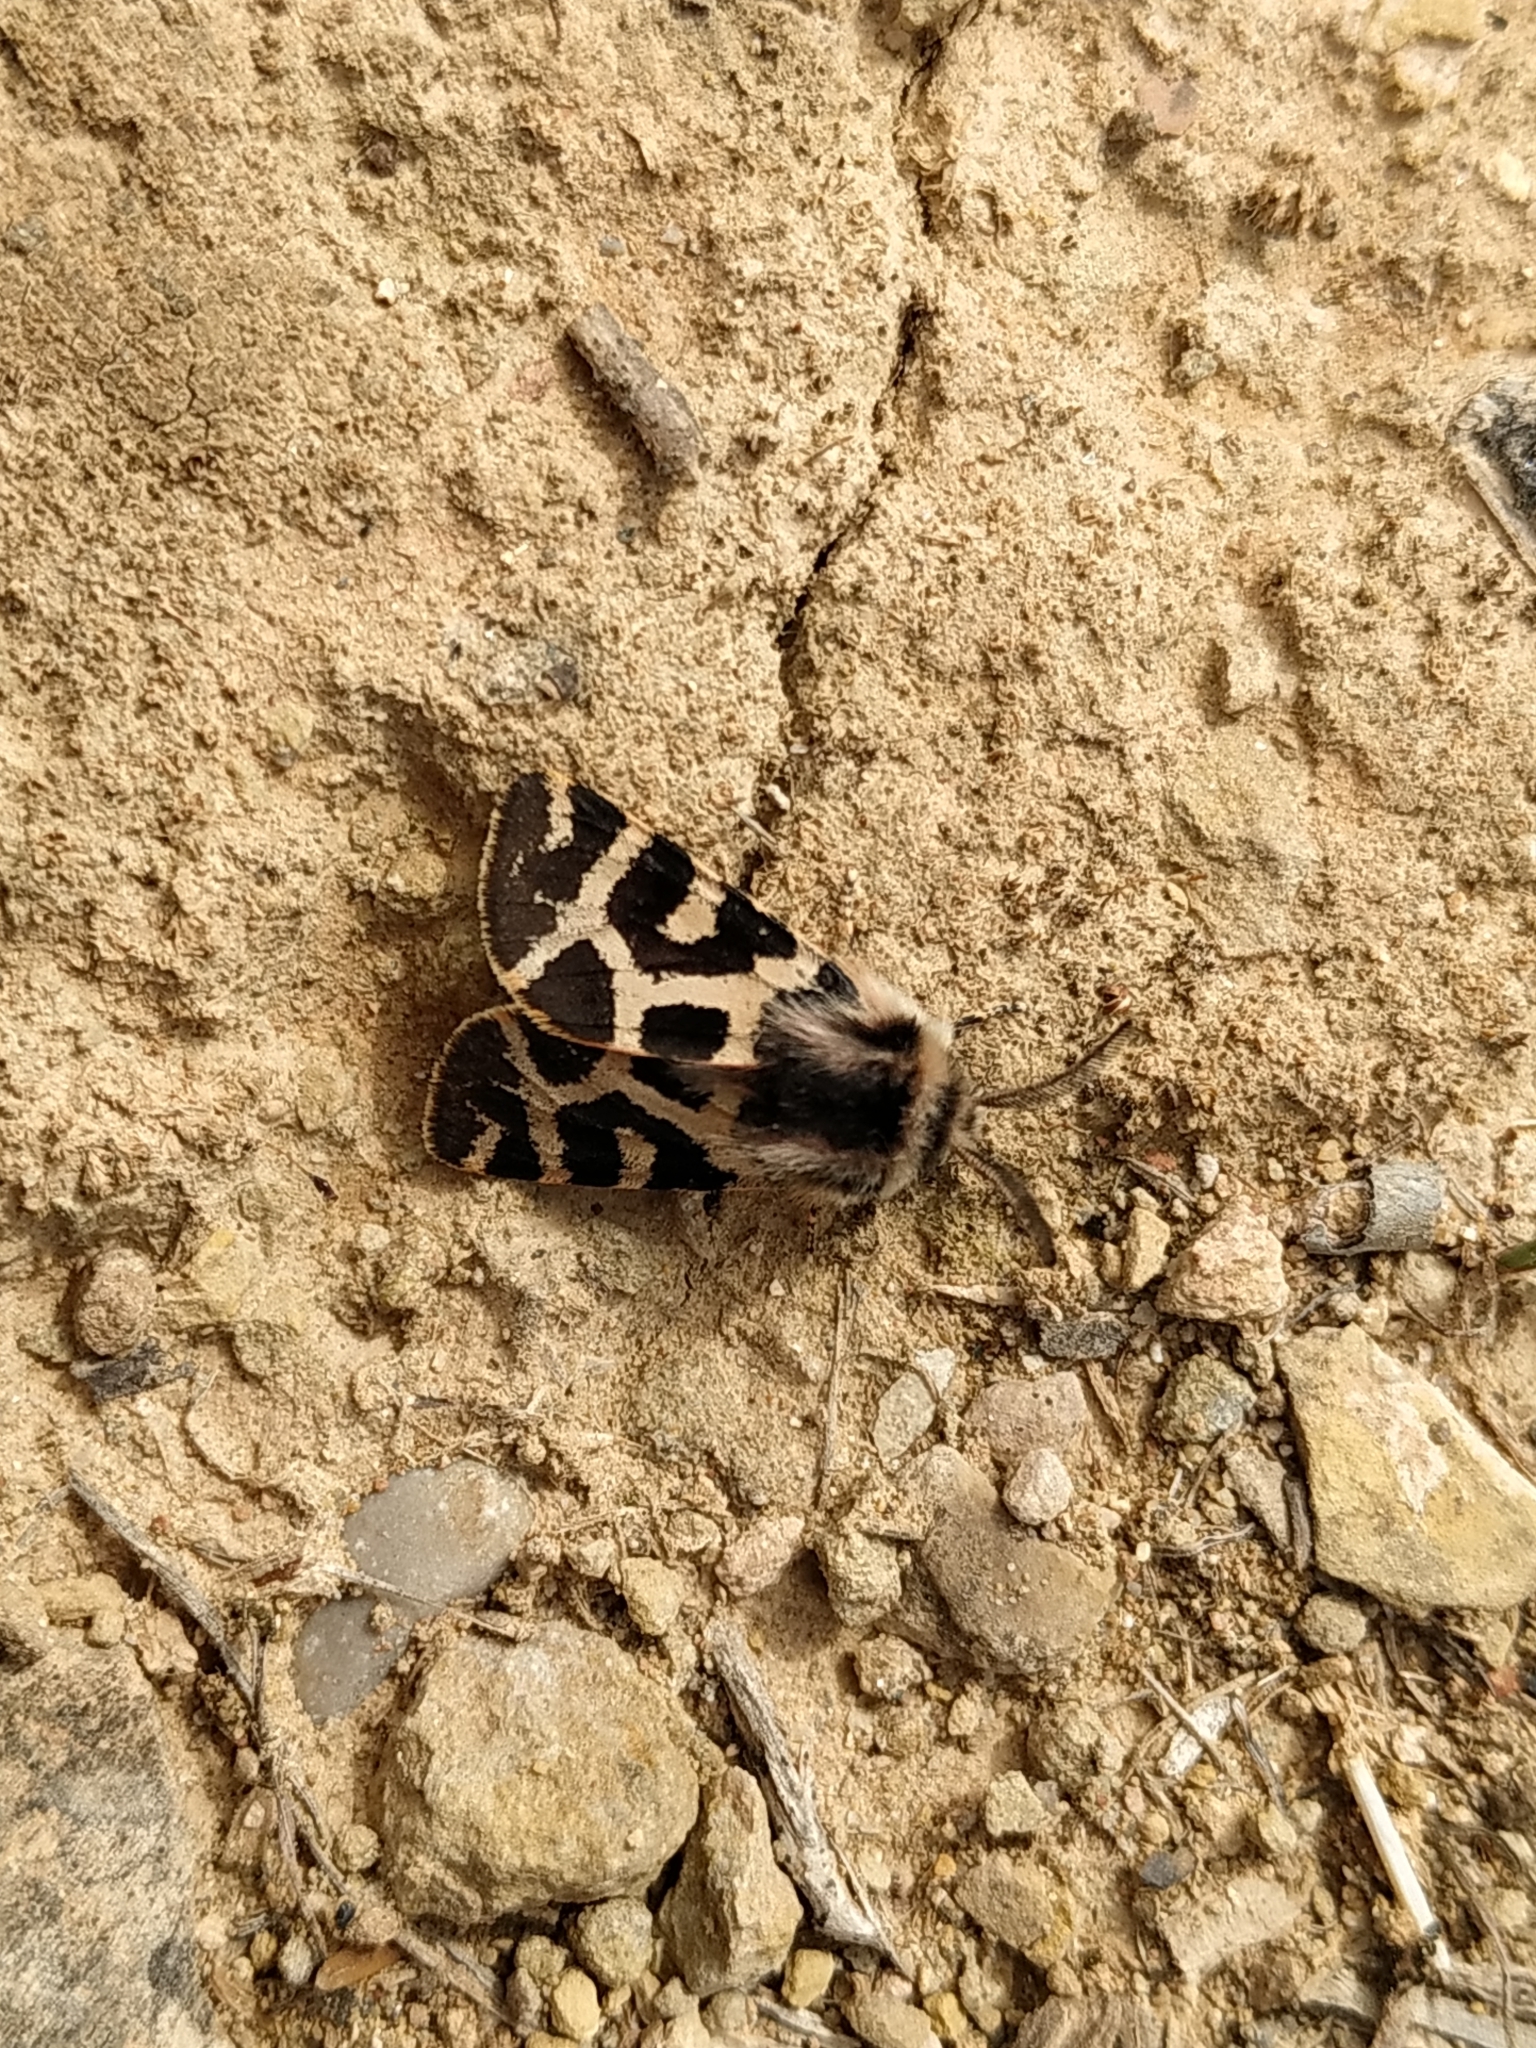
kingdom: Animalia
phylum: Arthropoda
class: Insecta
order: Lepidoptera
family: Erebidae
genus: Artimelia
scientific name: Artimelia latreillii
